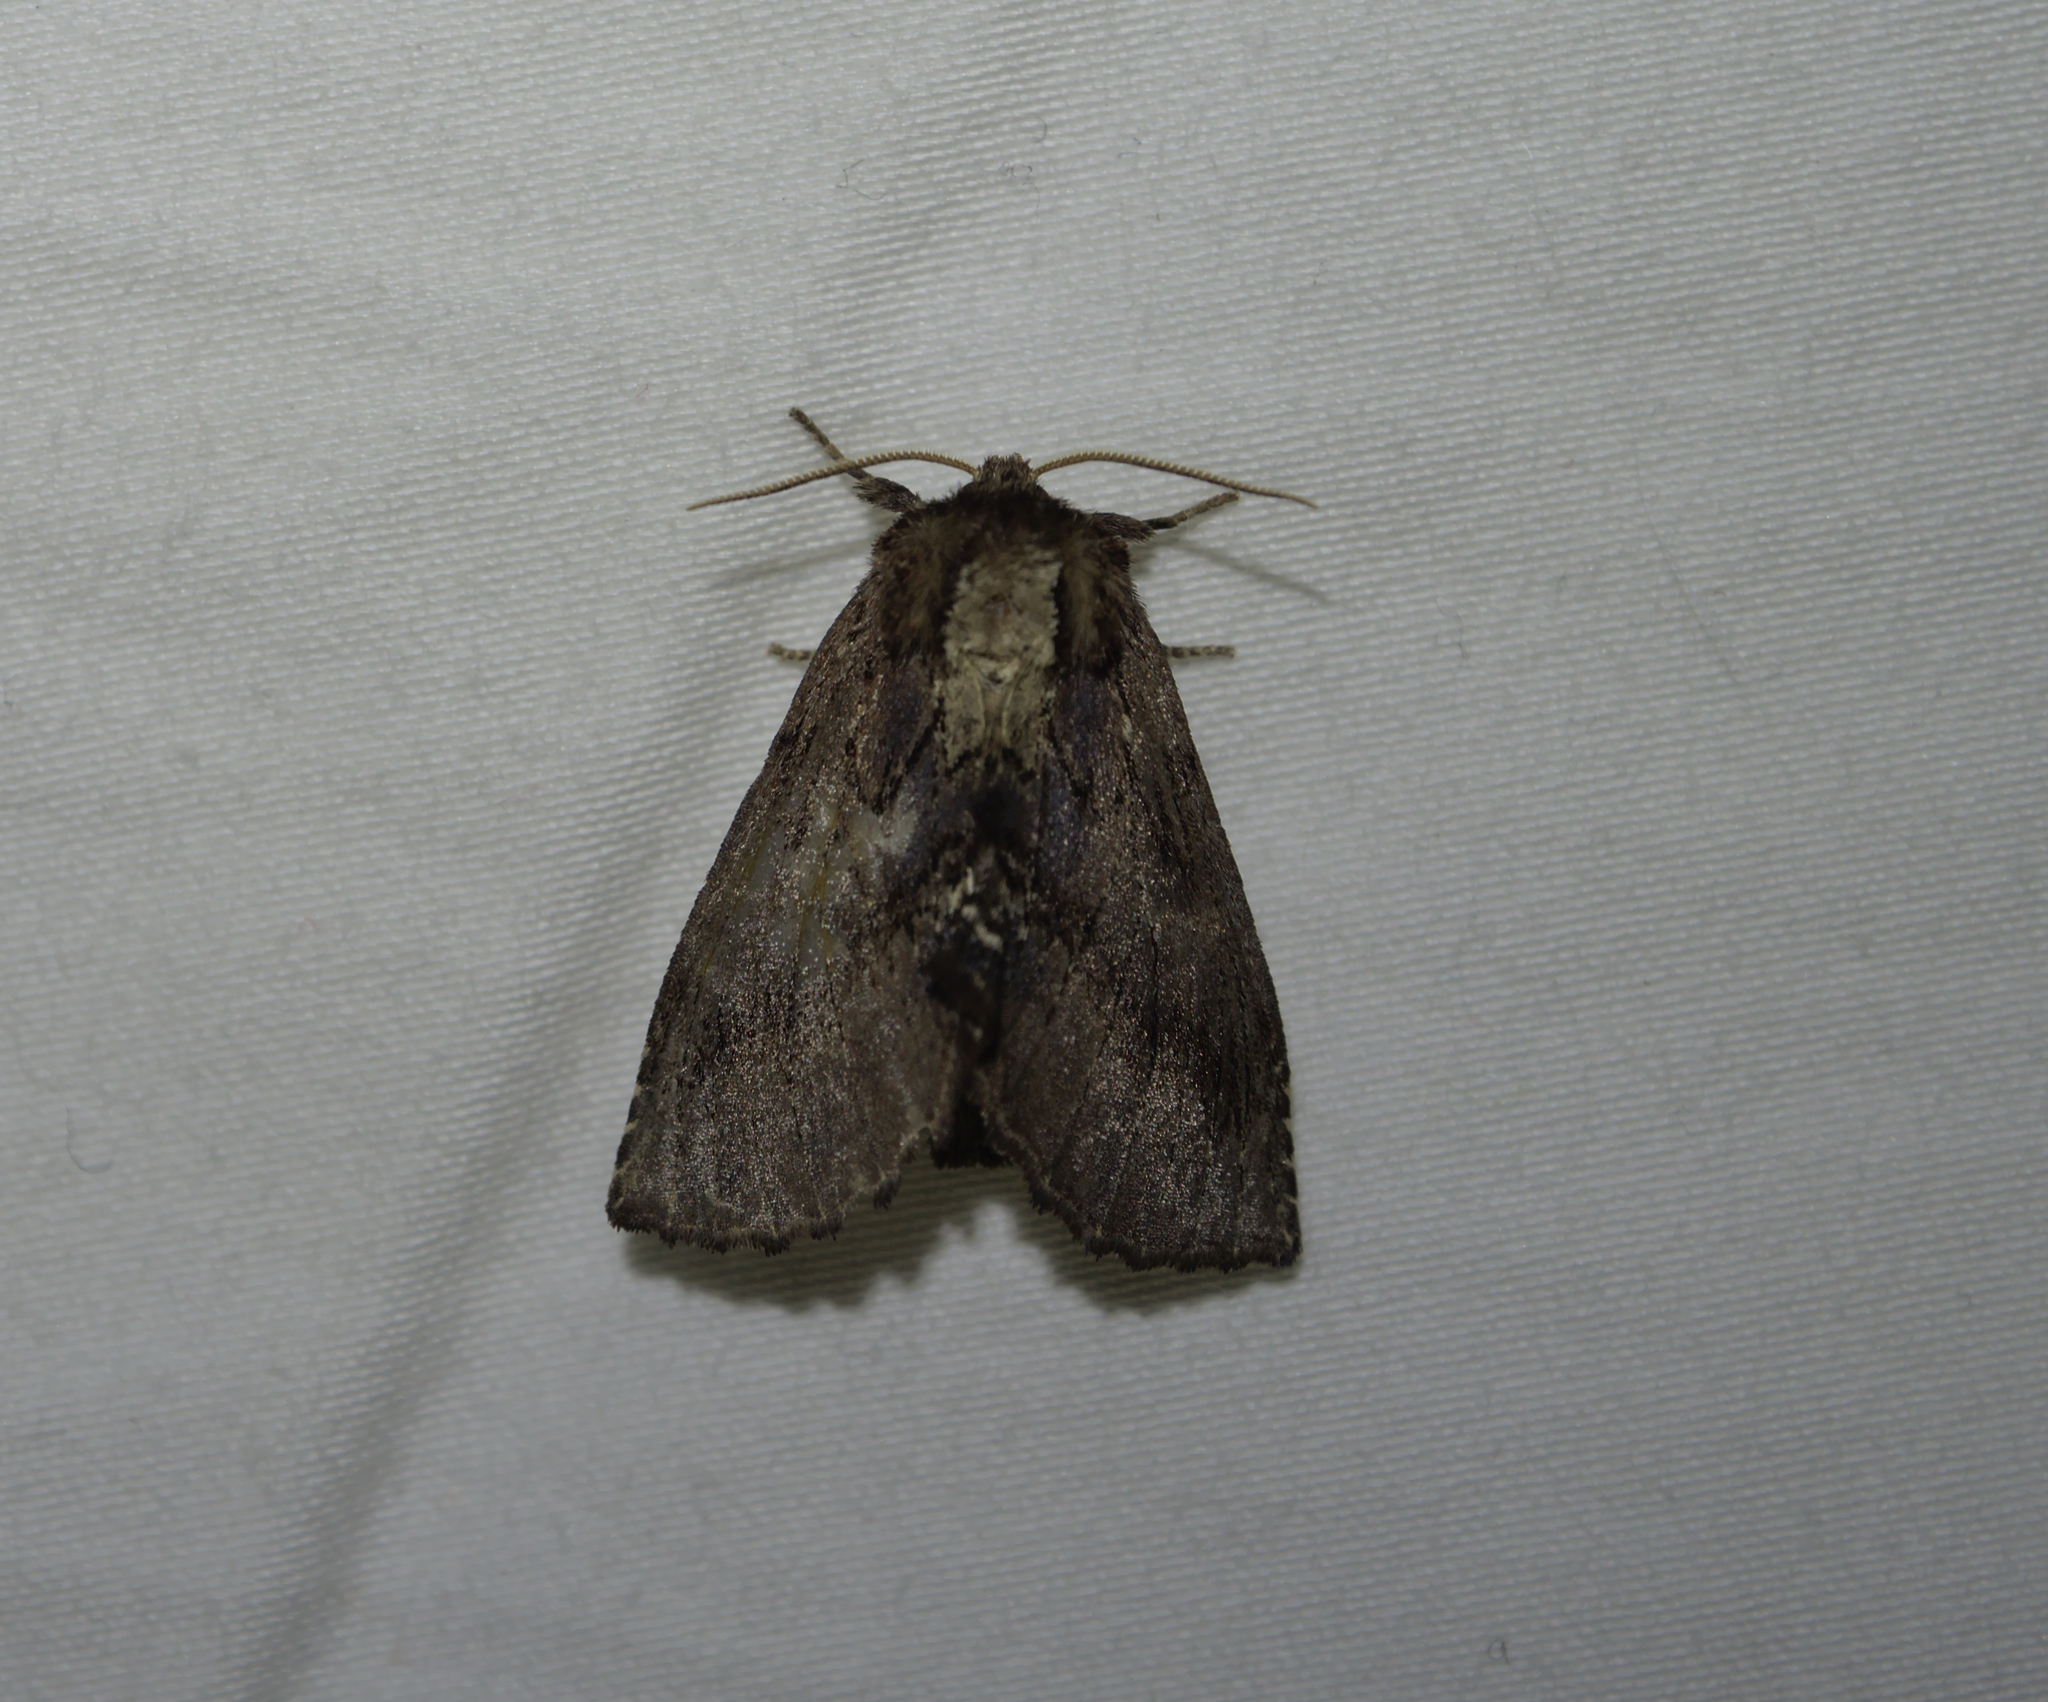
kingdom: Animalia
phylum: Arthropoda
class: Insecta
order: Lepidoptera
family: Notodontidae
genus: Ptilodon
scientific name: Ptilodon capucina
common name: Coxcomb prominent
